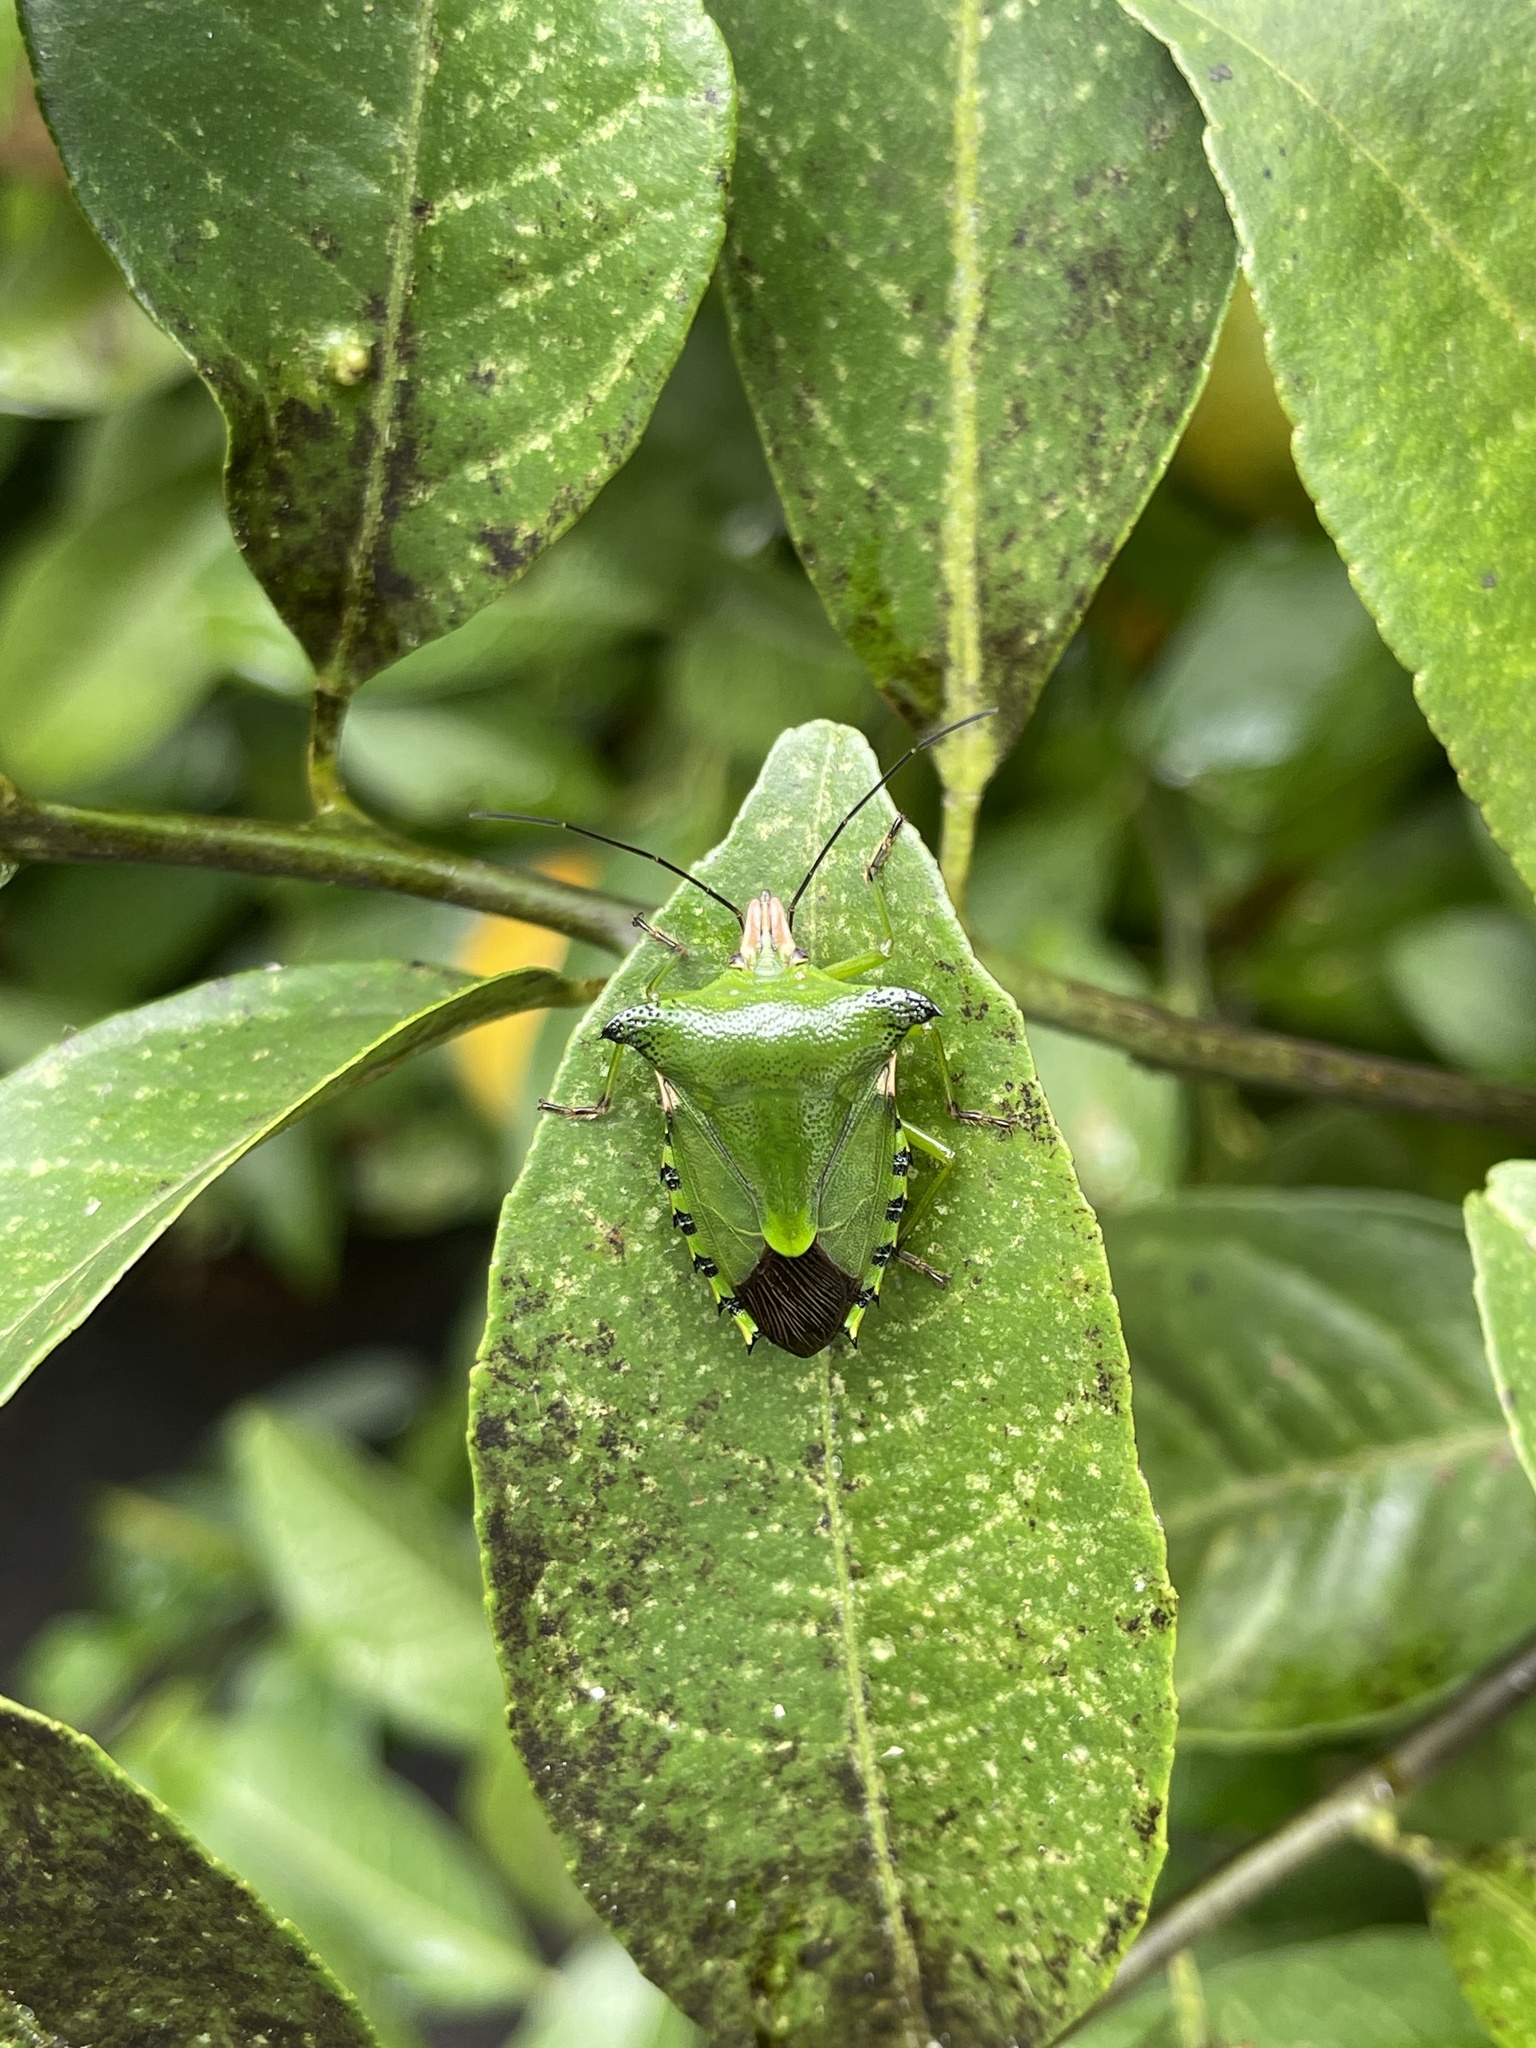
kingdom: Animalia
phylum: Arthropoda
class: Insecta
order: Hemiptera
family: Pentatomidae
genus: Rhynchocoris
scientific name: Rhynchocoris humeralis
